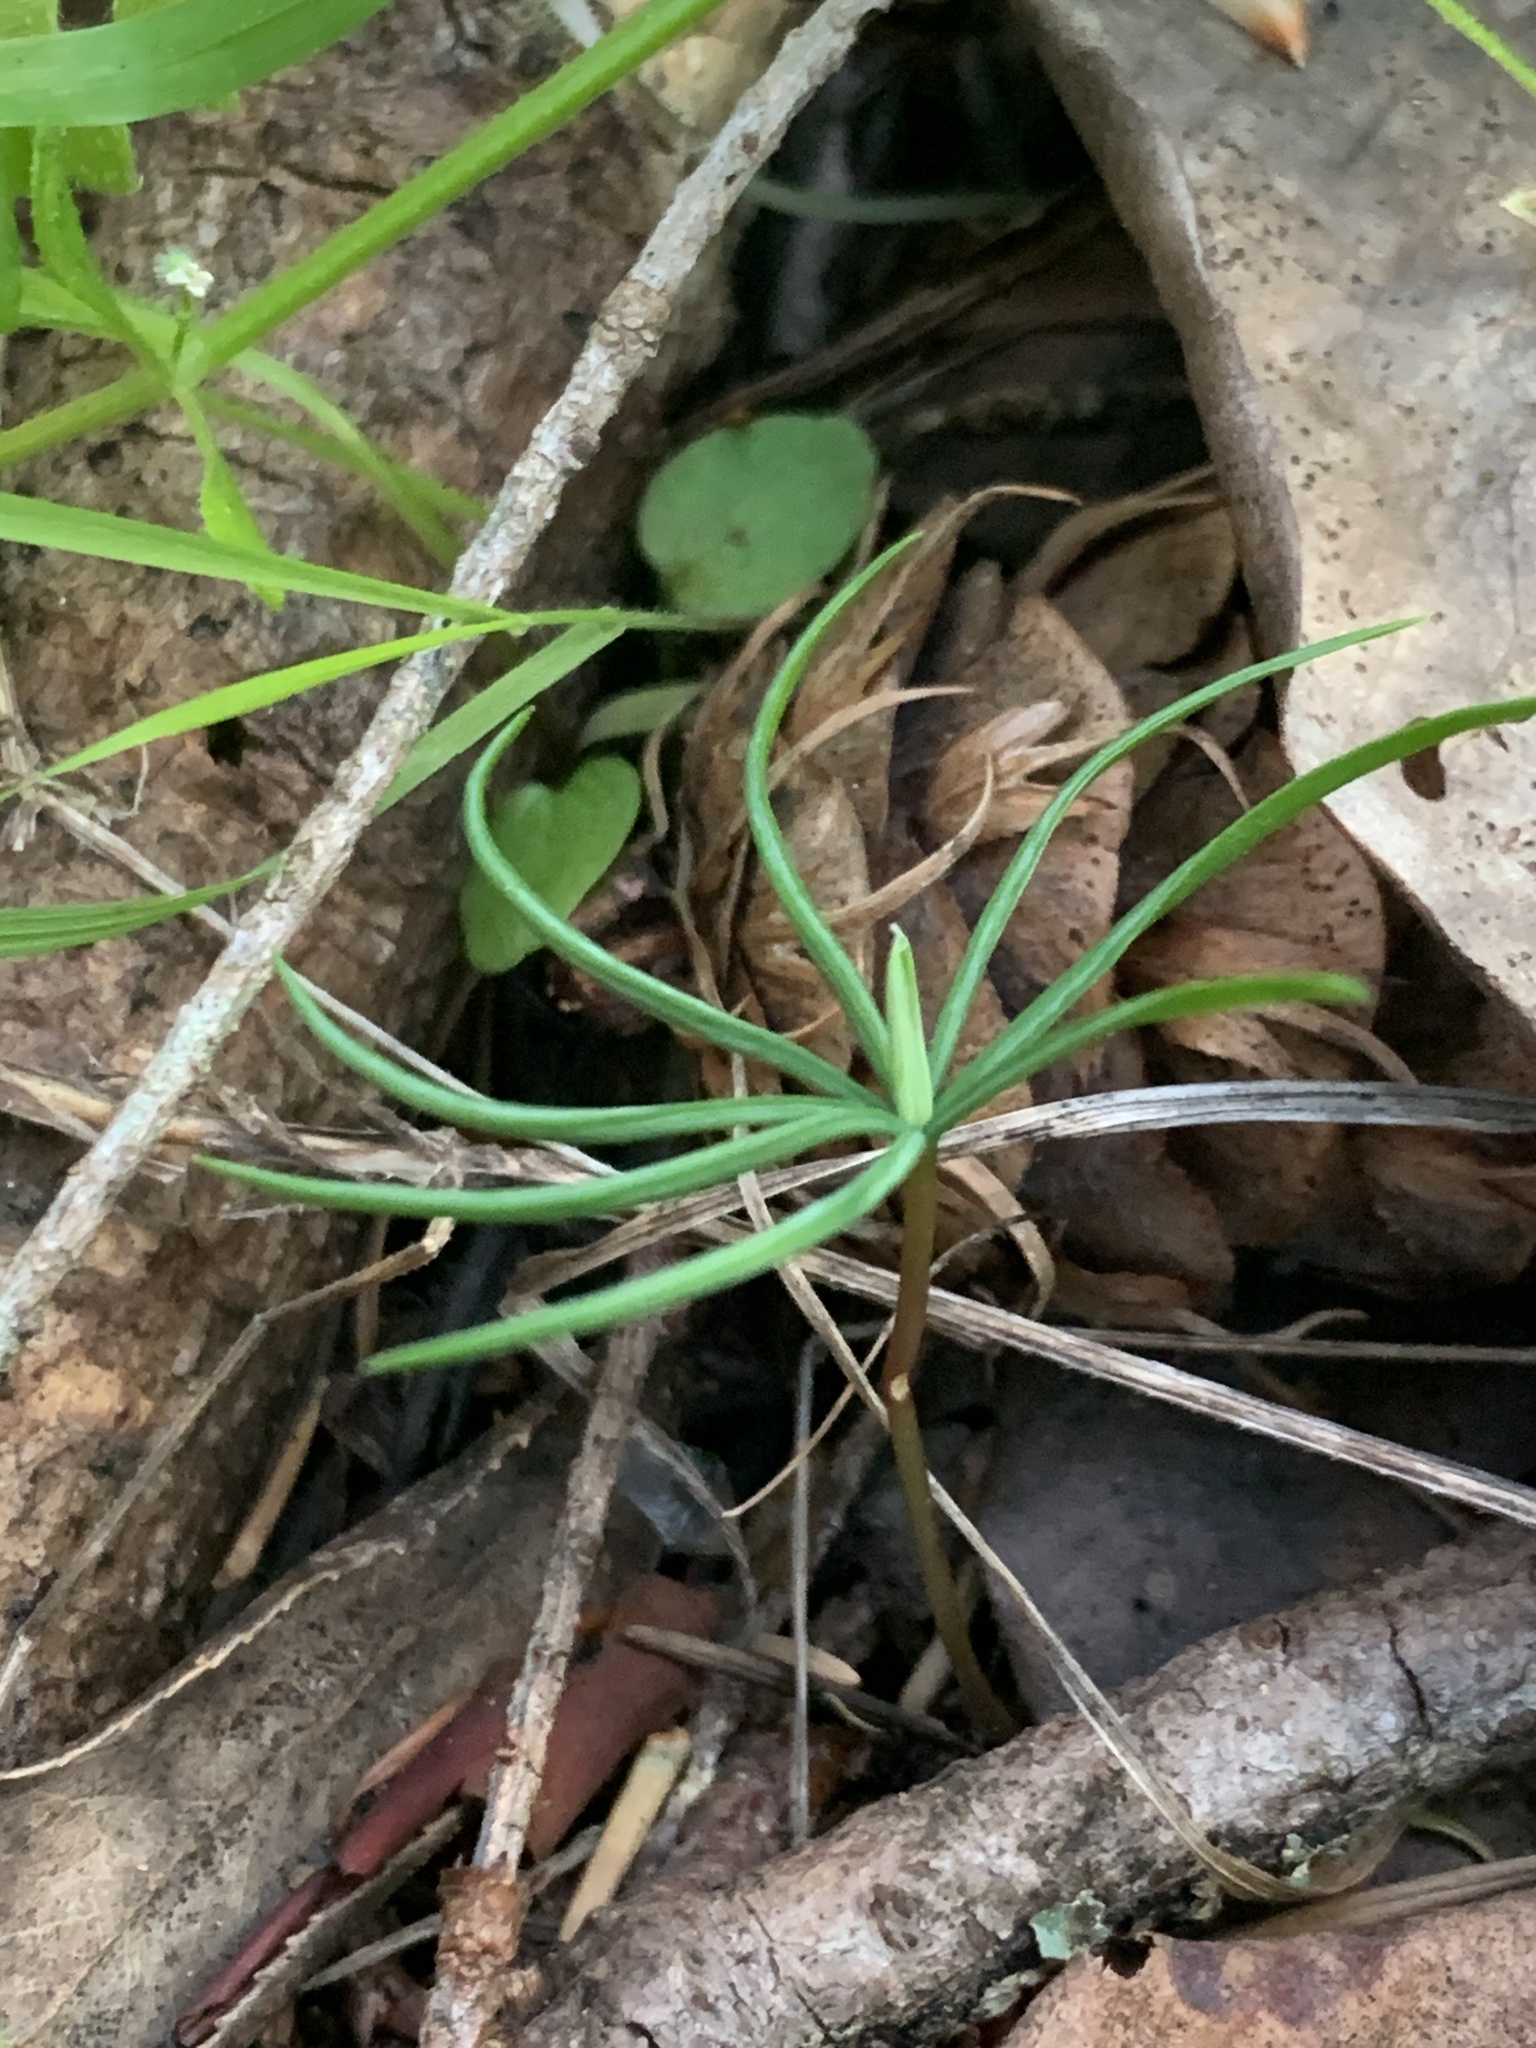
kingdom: Plantae
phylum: Tracheophyta
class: Pinopsida
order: Pinales
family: Pinaceae
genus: Pseudotsuga
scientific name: Pseudotsuga menziesii
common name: Douglas fir
